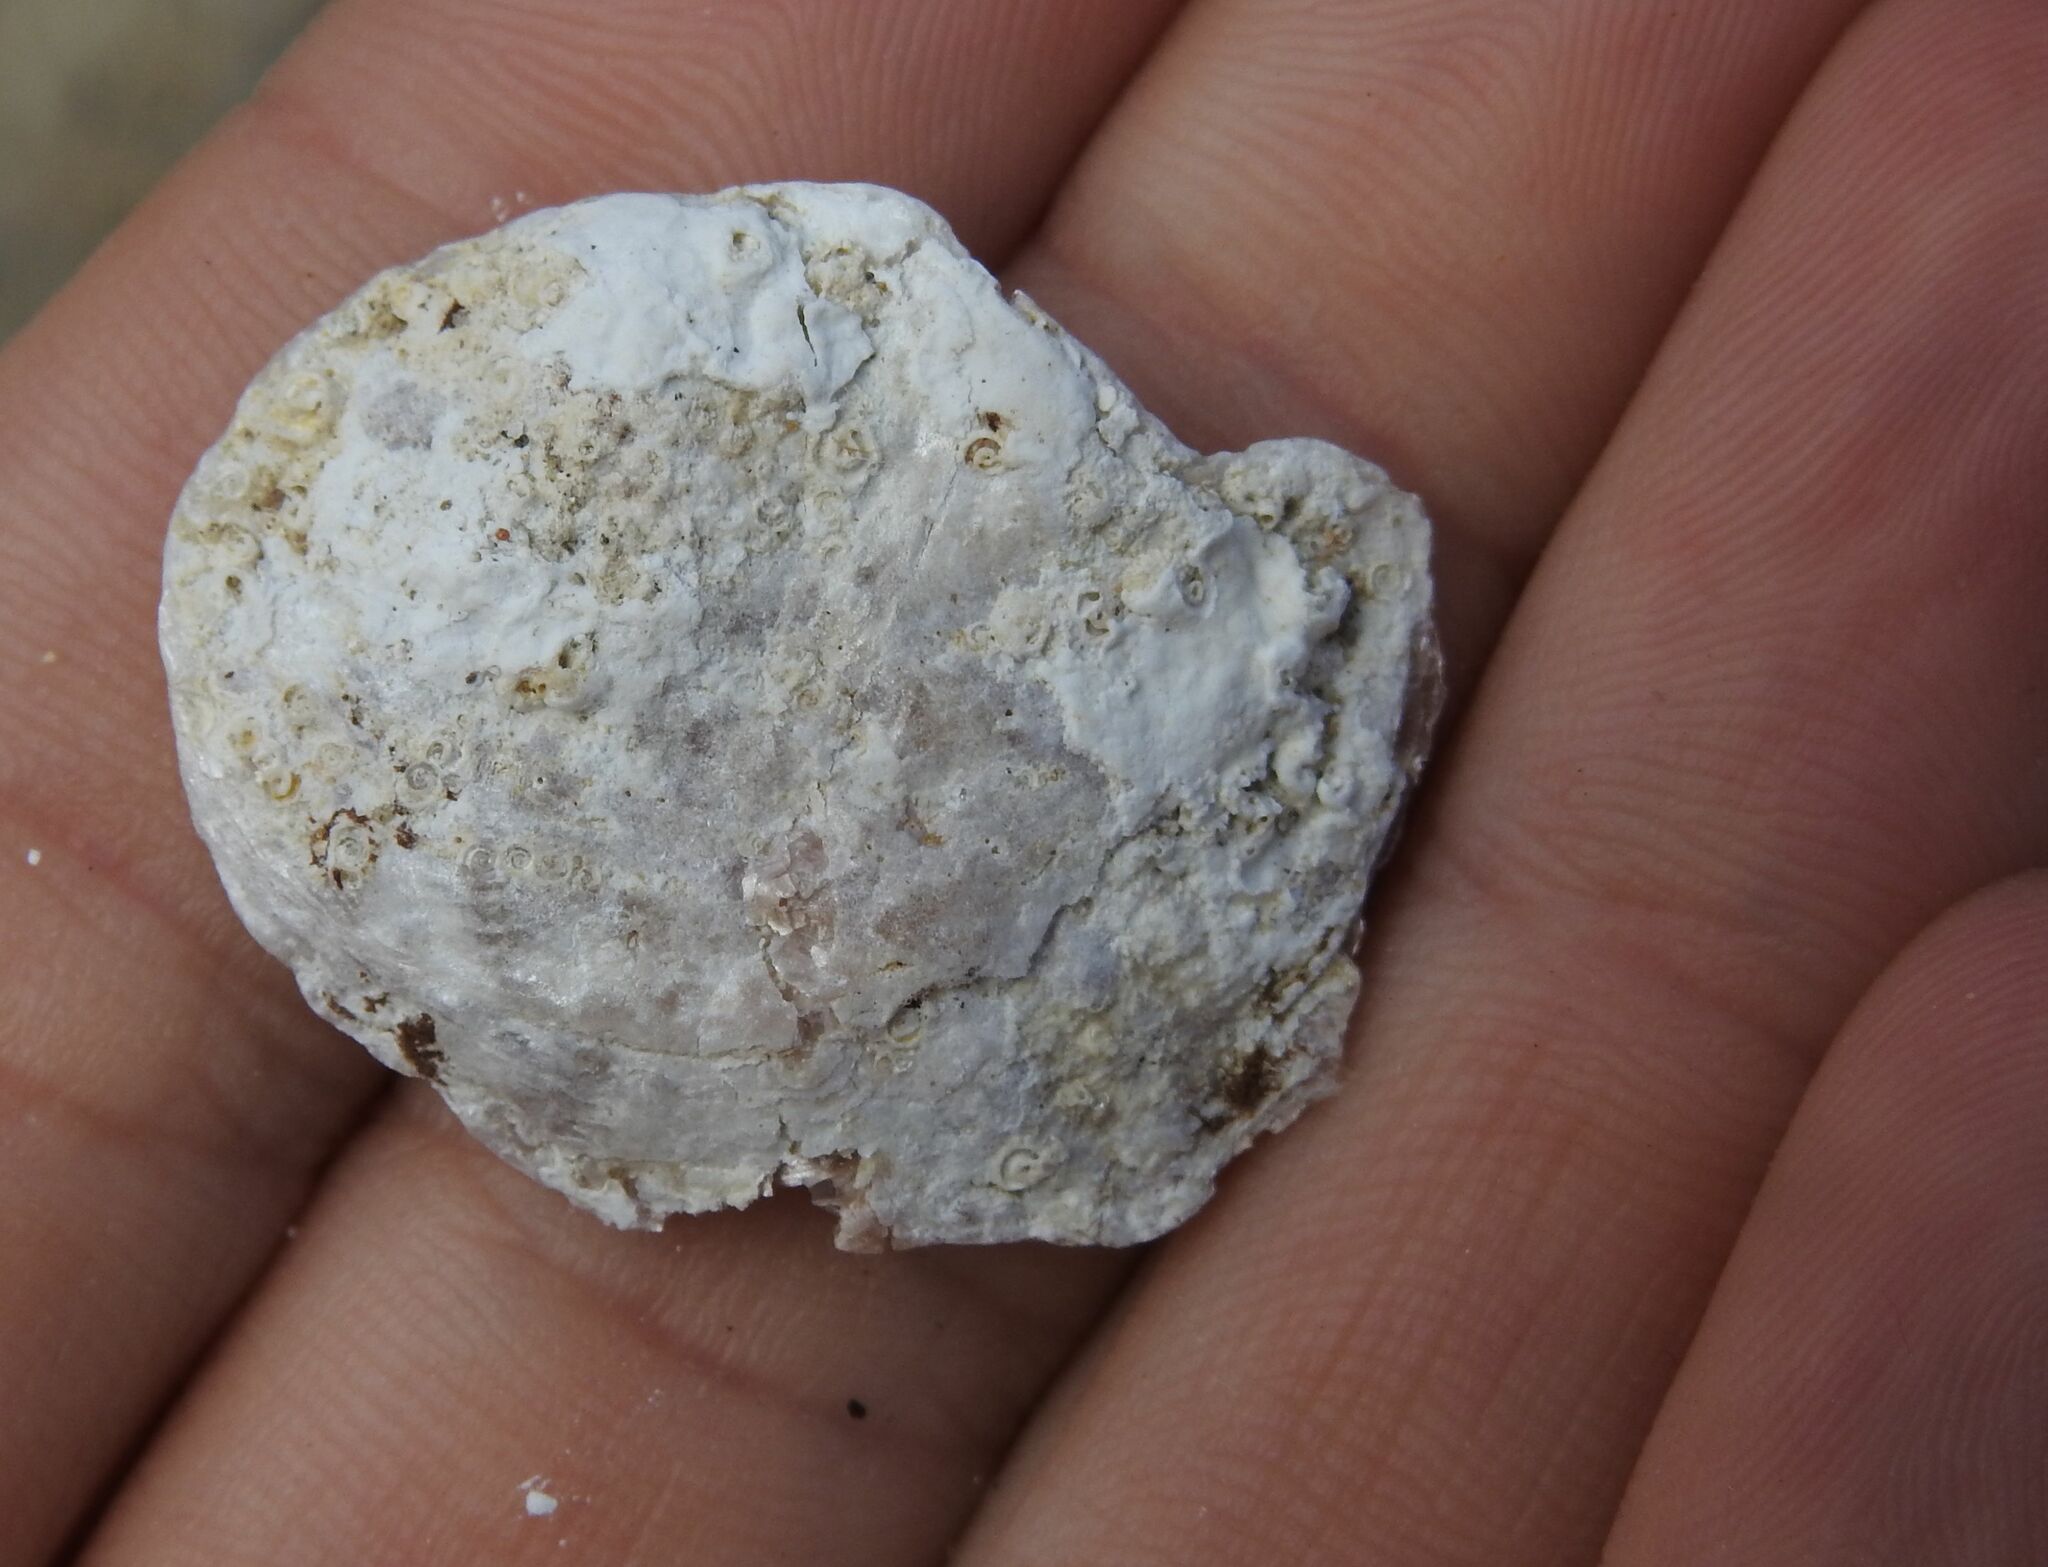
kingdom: Animalia
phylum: Mollusca
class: Bivalvia
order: Pectinida
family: Anomiidae
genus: Anomia
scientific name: Anomia ephippium
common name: Saddle oyster
